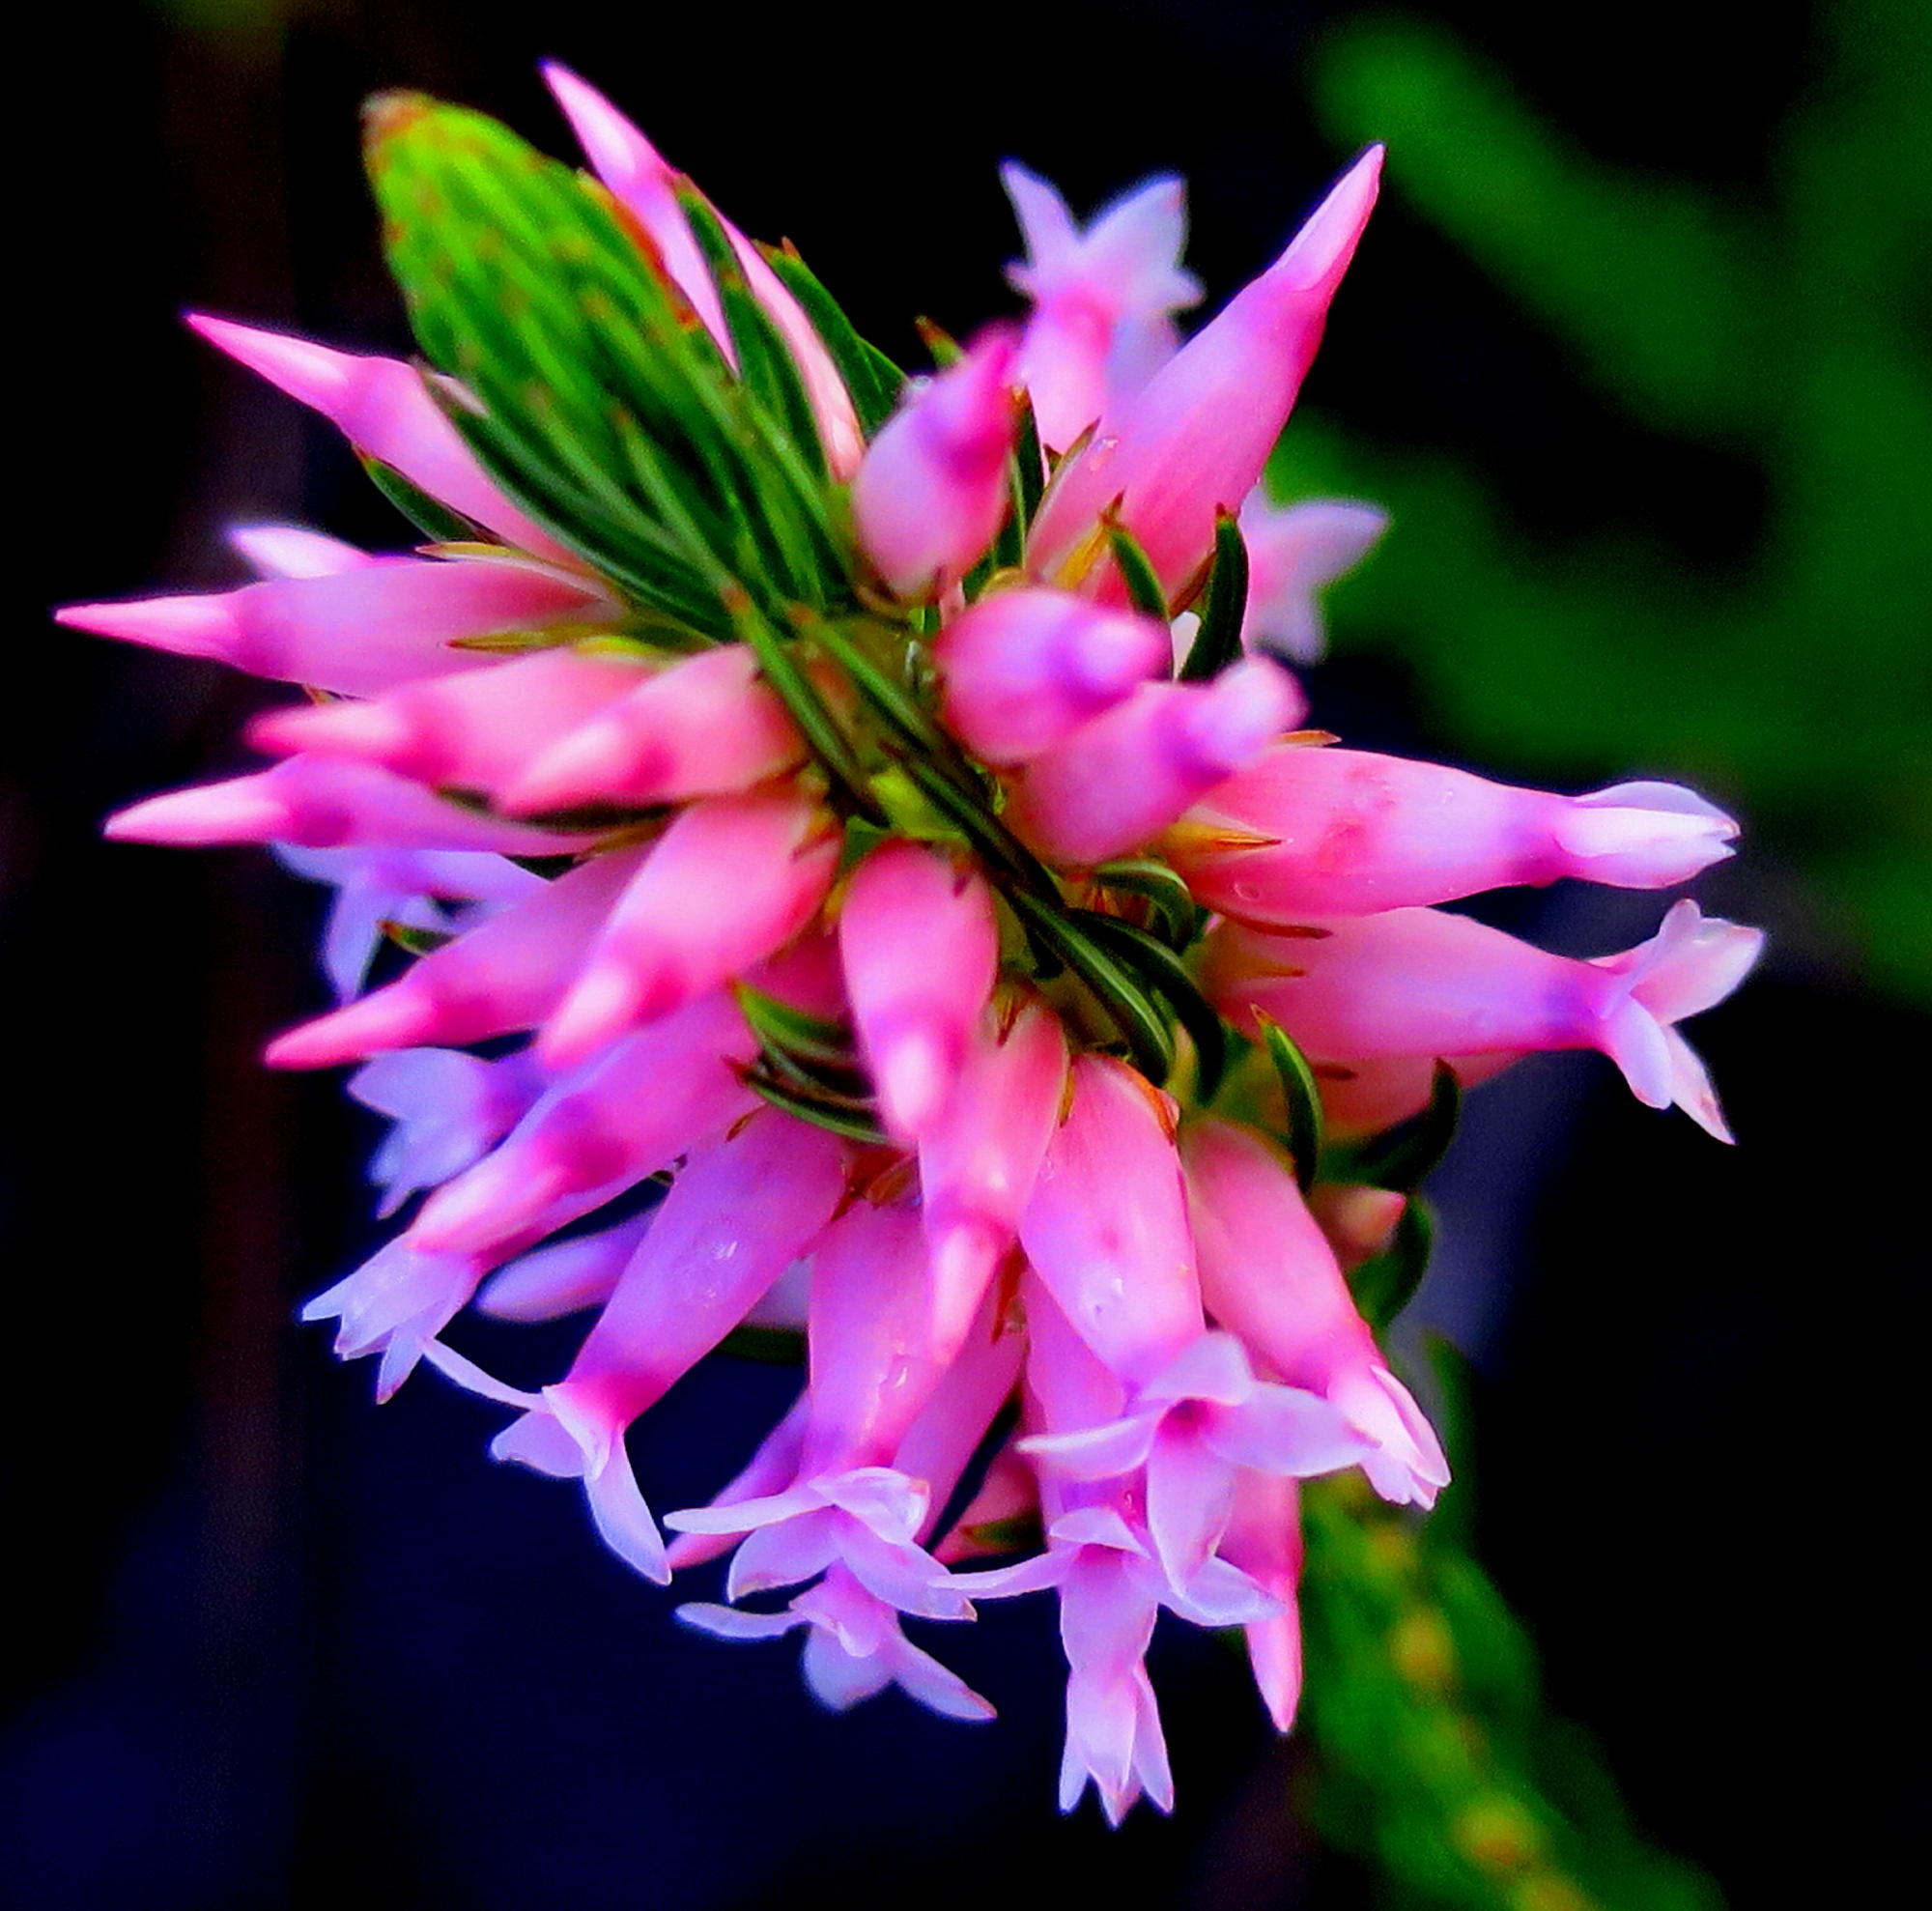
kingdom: Plantae
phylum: Tracheophyta
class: Magnoliopsida
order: Ericales
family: Ericaceae
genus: Erica
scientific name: Erica georgica
